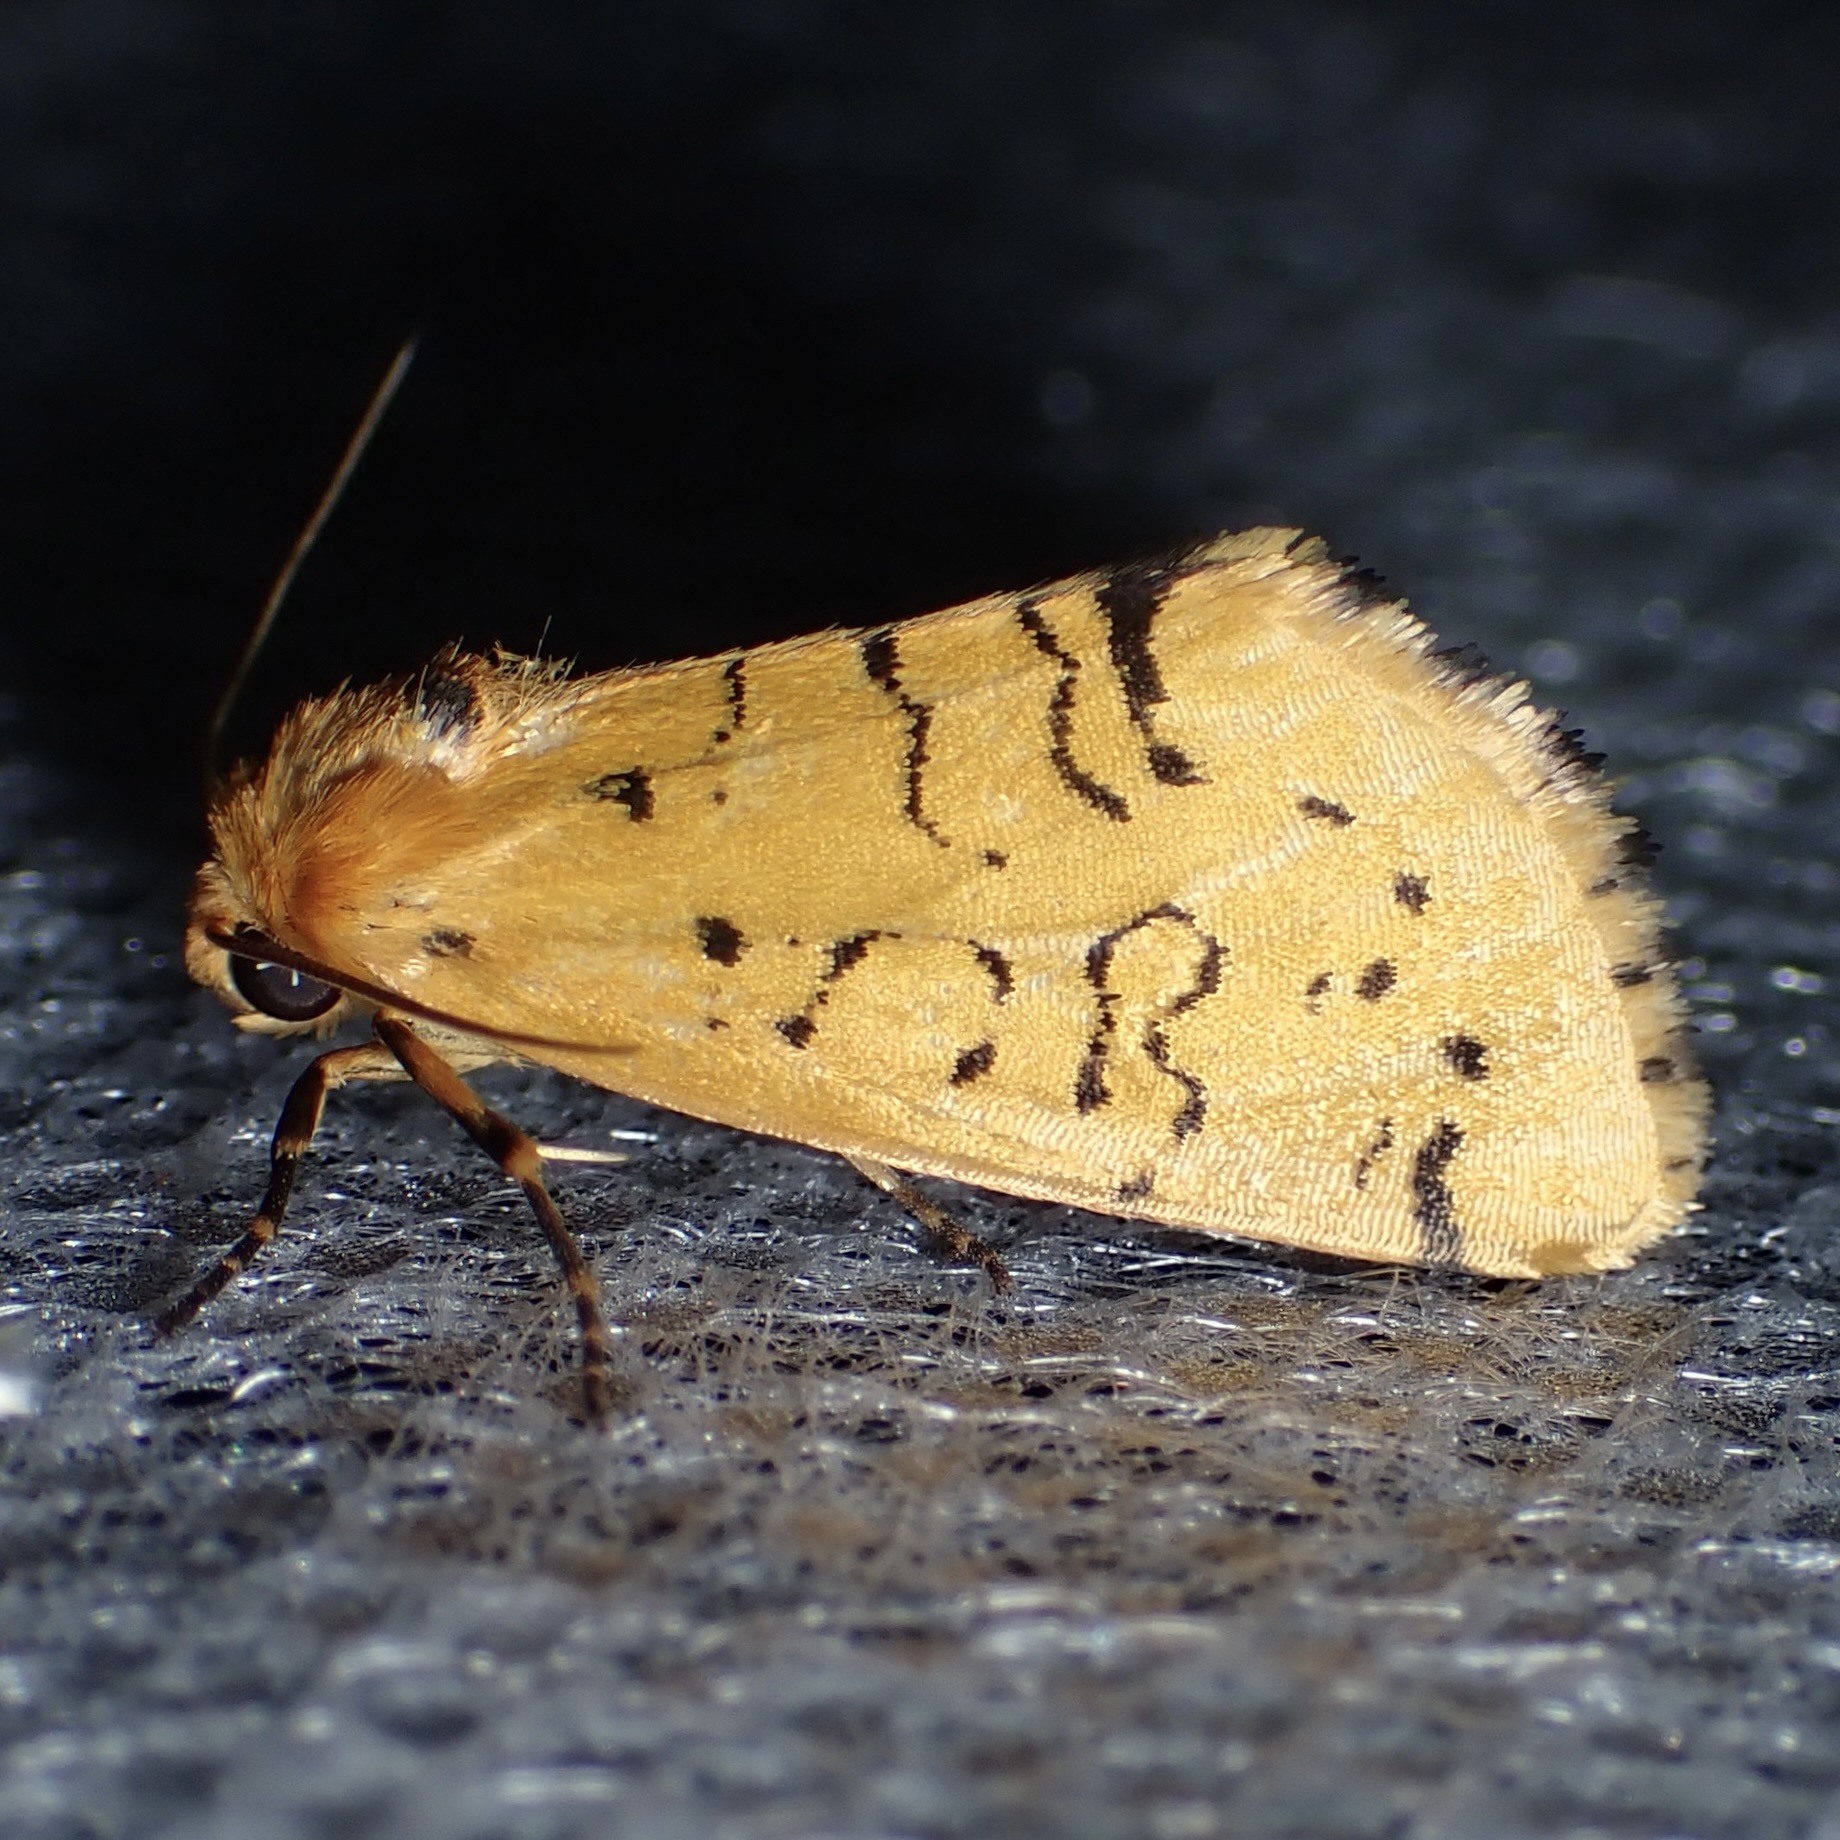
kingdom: Animalia
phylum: Arthropoda
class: Insecta
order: Lepidoptera
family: Noctuidae
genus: Chrysoecia
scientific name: Chrysoecia atrolinea
